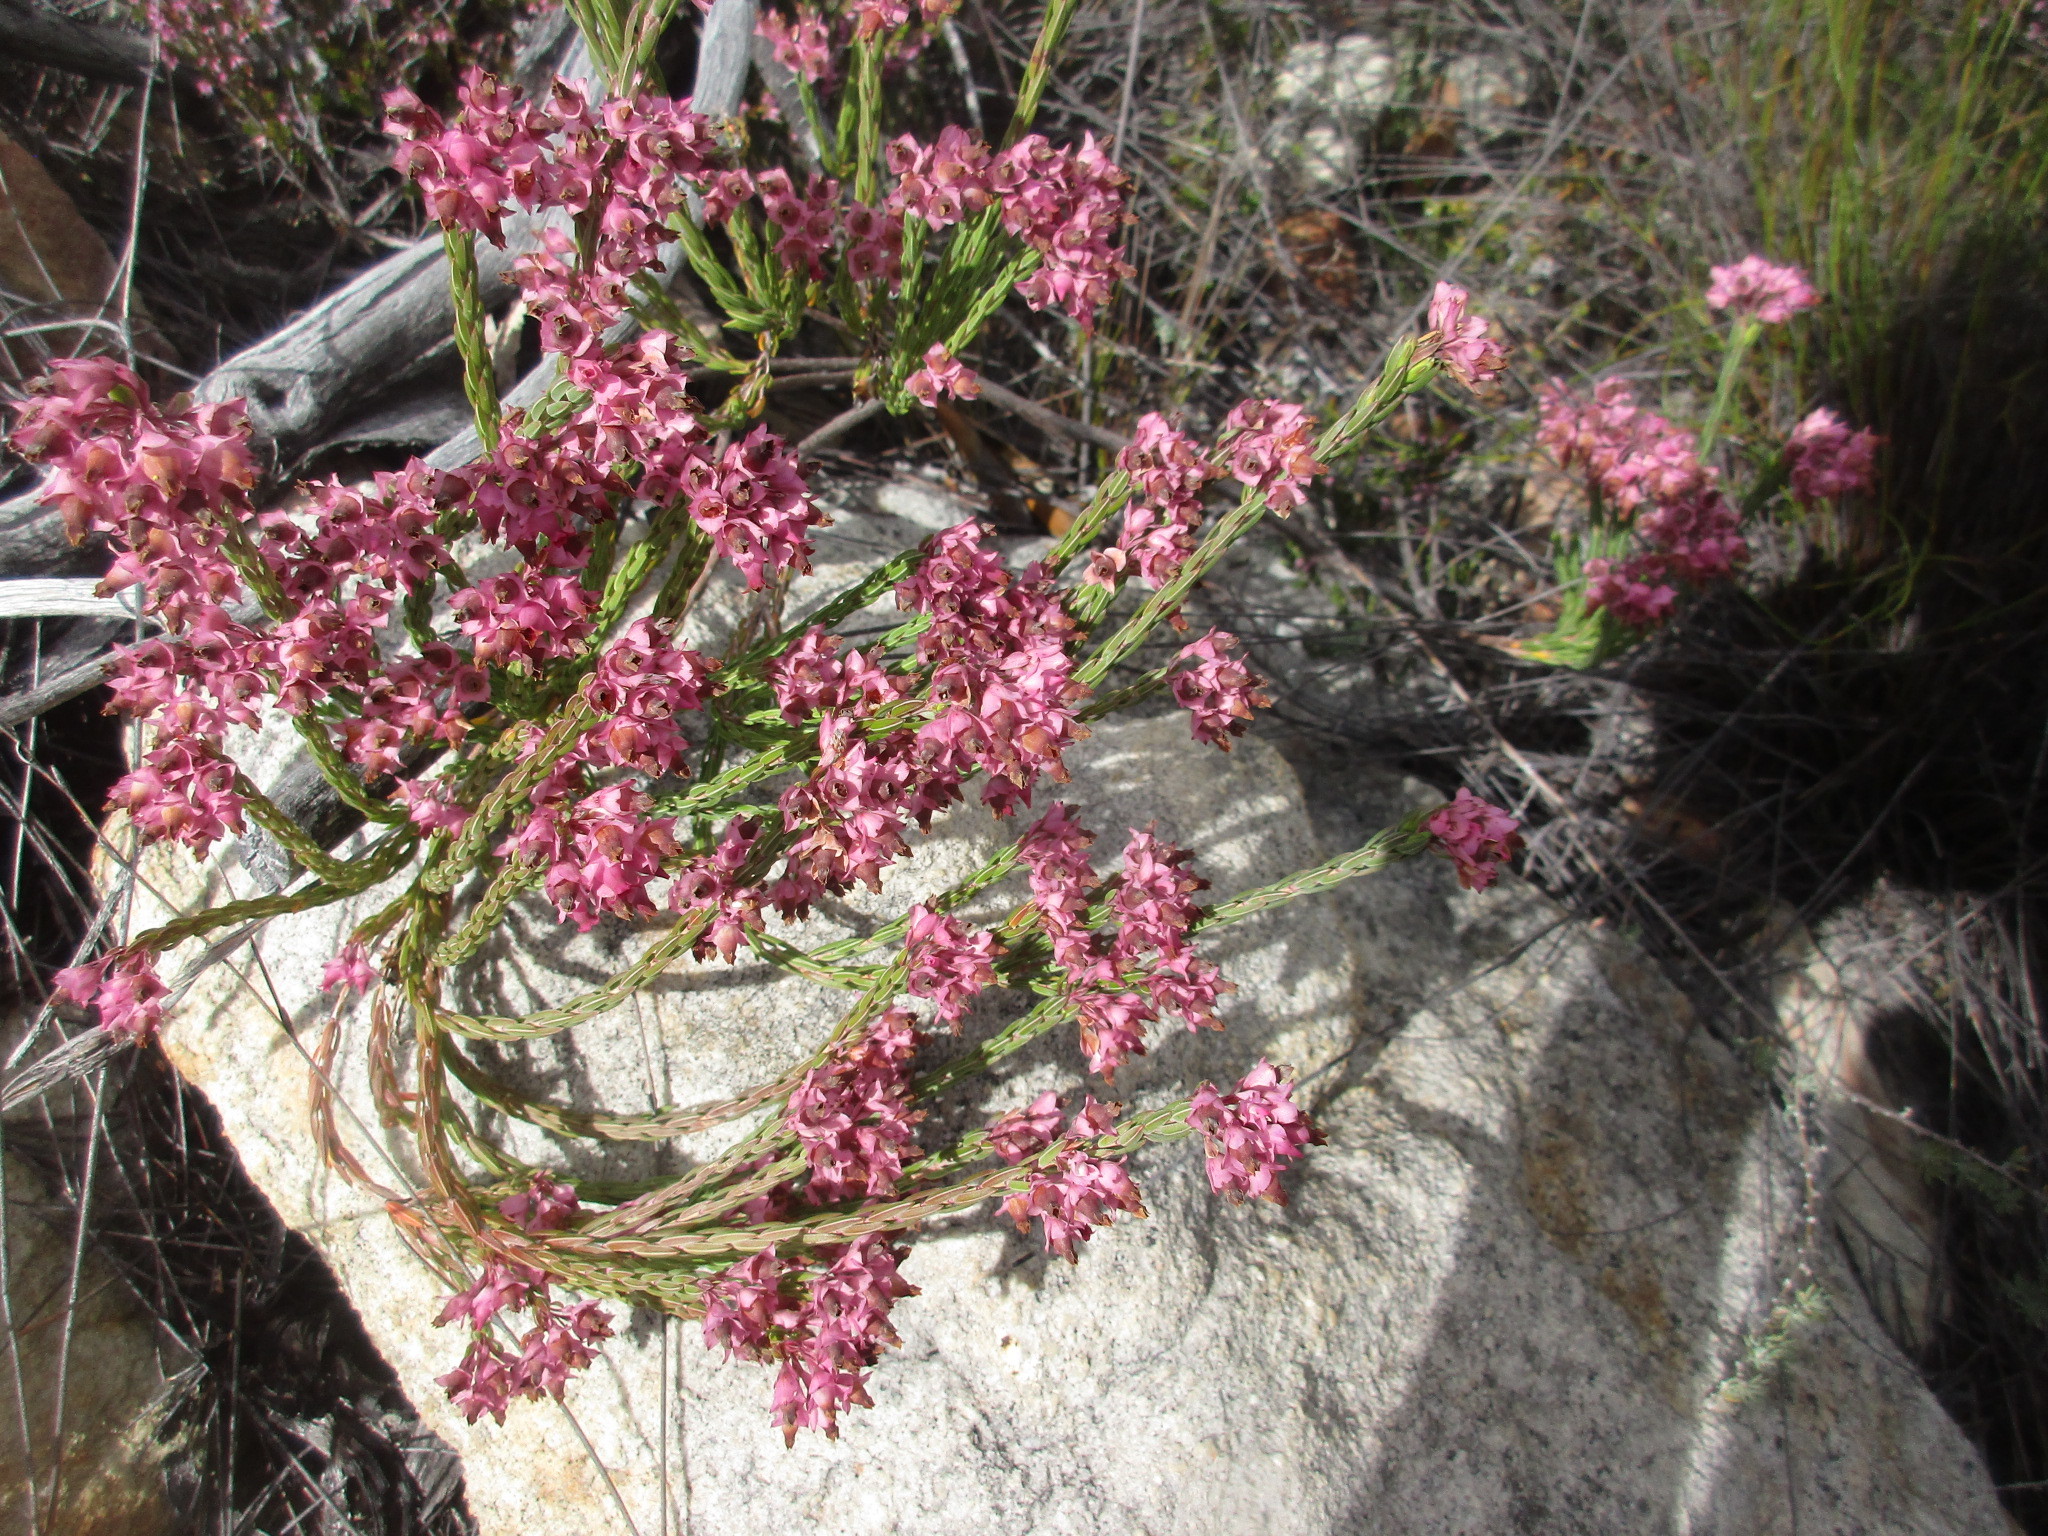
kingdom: Plantae
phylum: Tracheophyta
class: Magnoliopsida
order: Ericales
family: Ericaceae
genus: Erica
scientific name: Erica taxifolia
